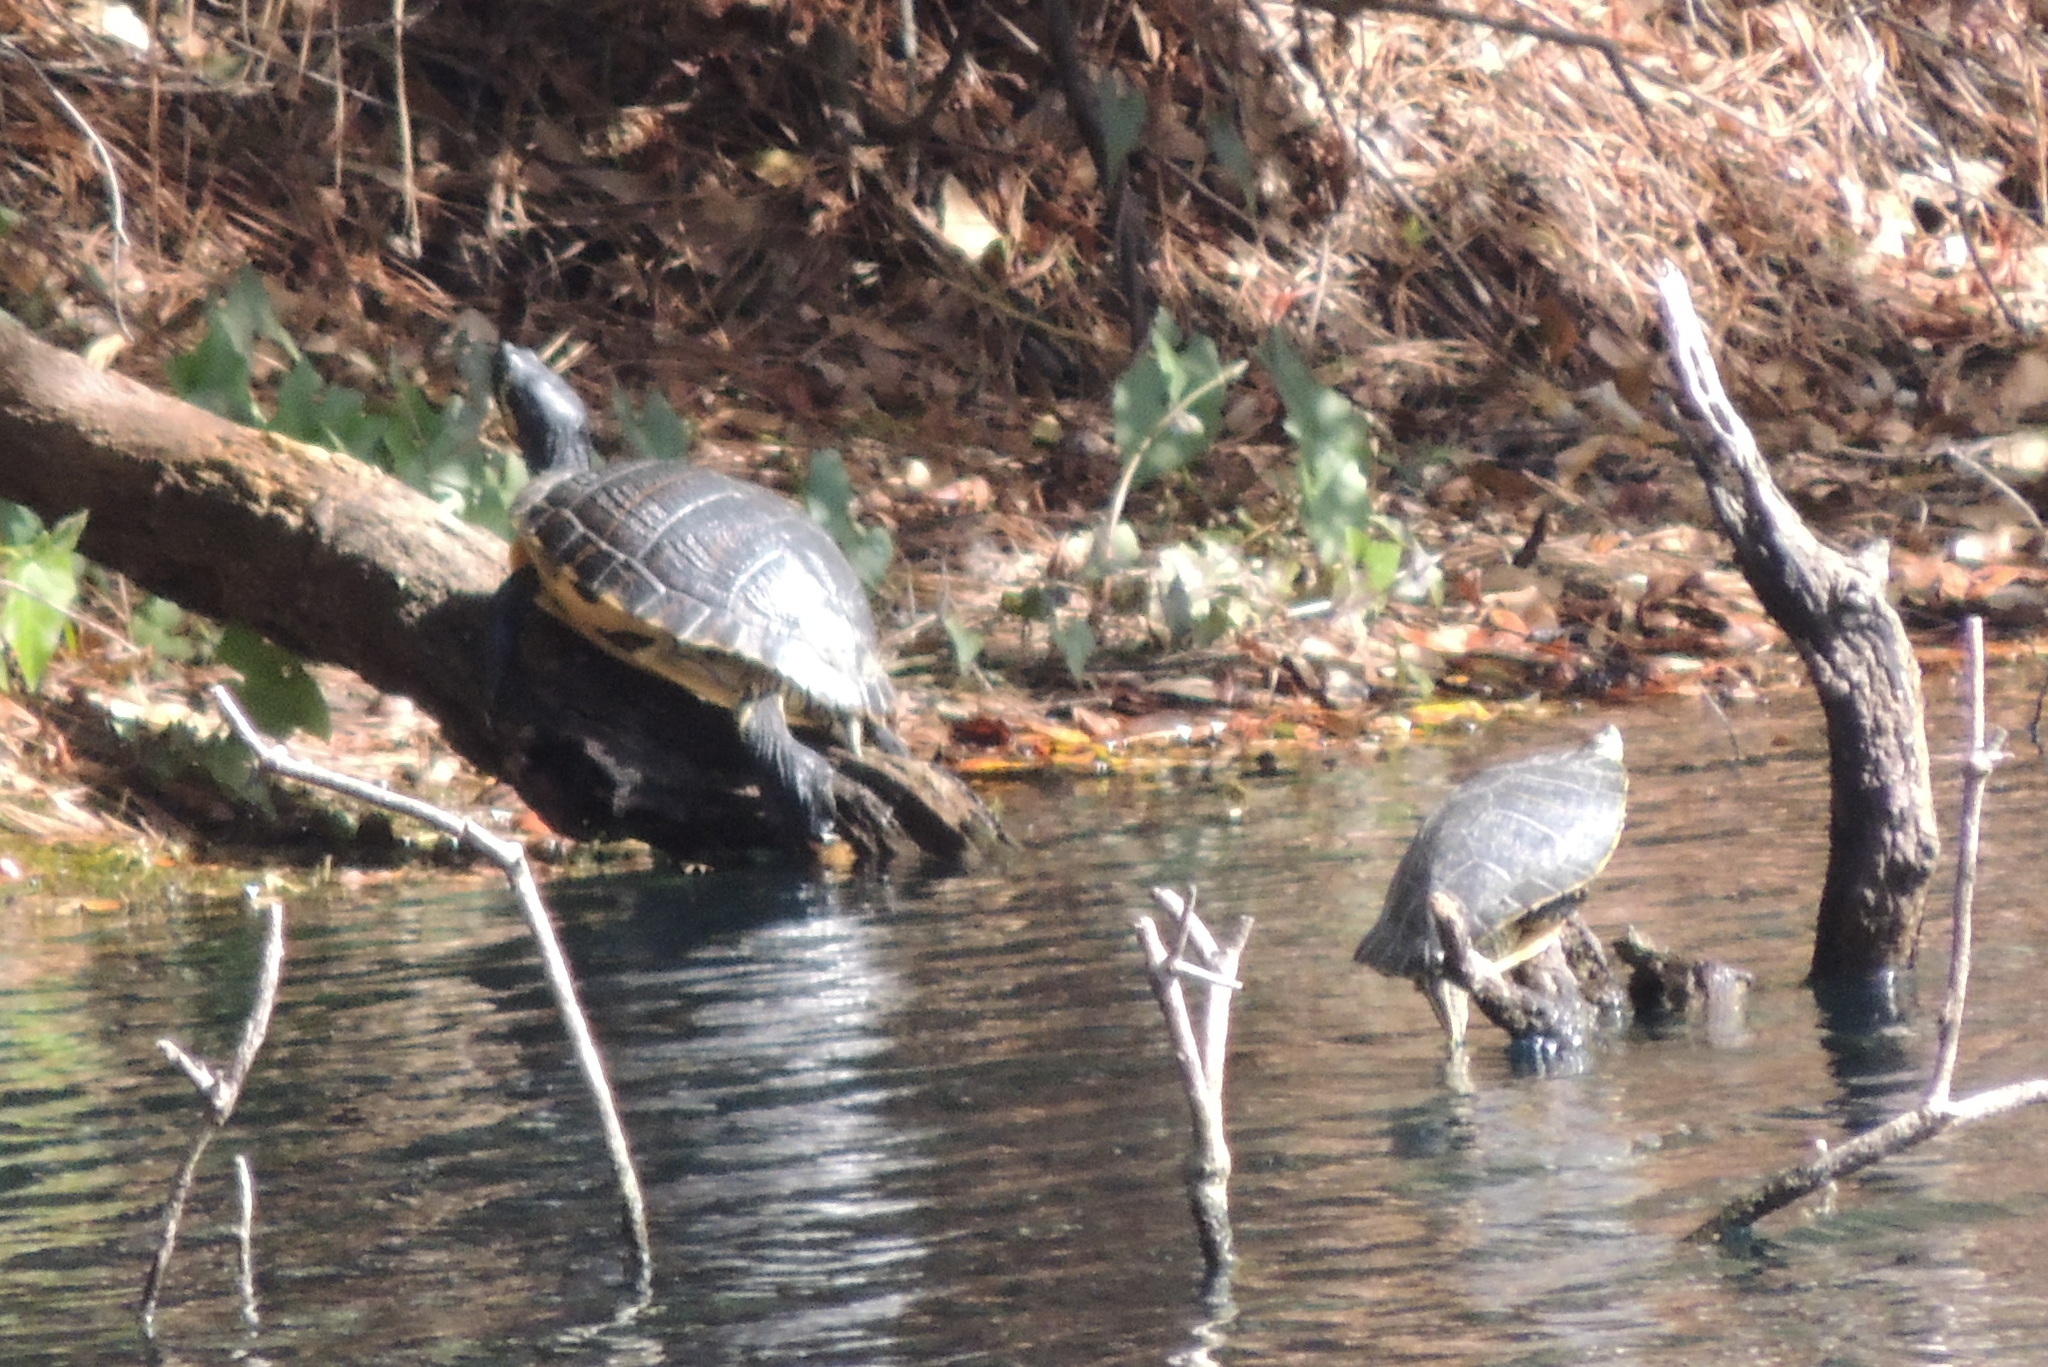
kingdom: Animalia
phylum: Chordata
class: Testudines
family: Emydidae
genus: Trachemys
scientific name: Trachemys scripta
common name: Slider
